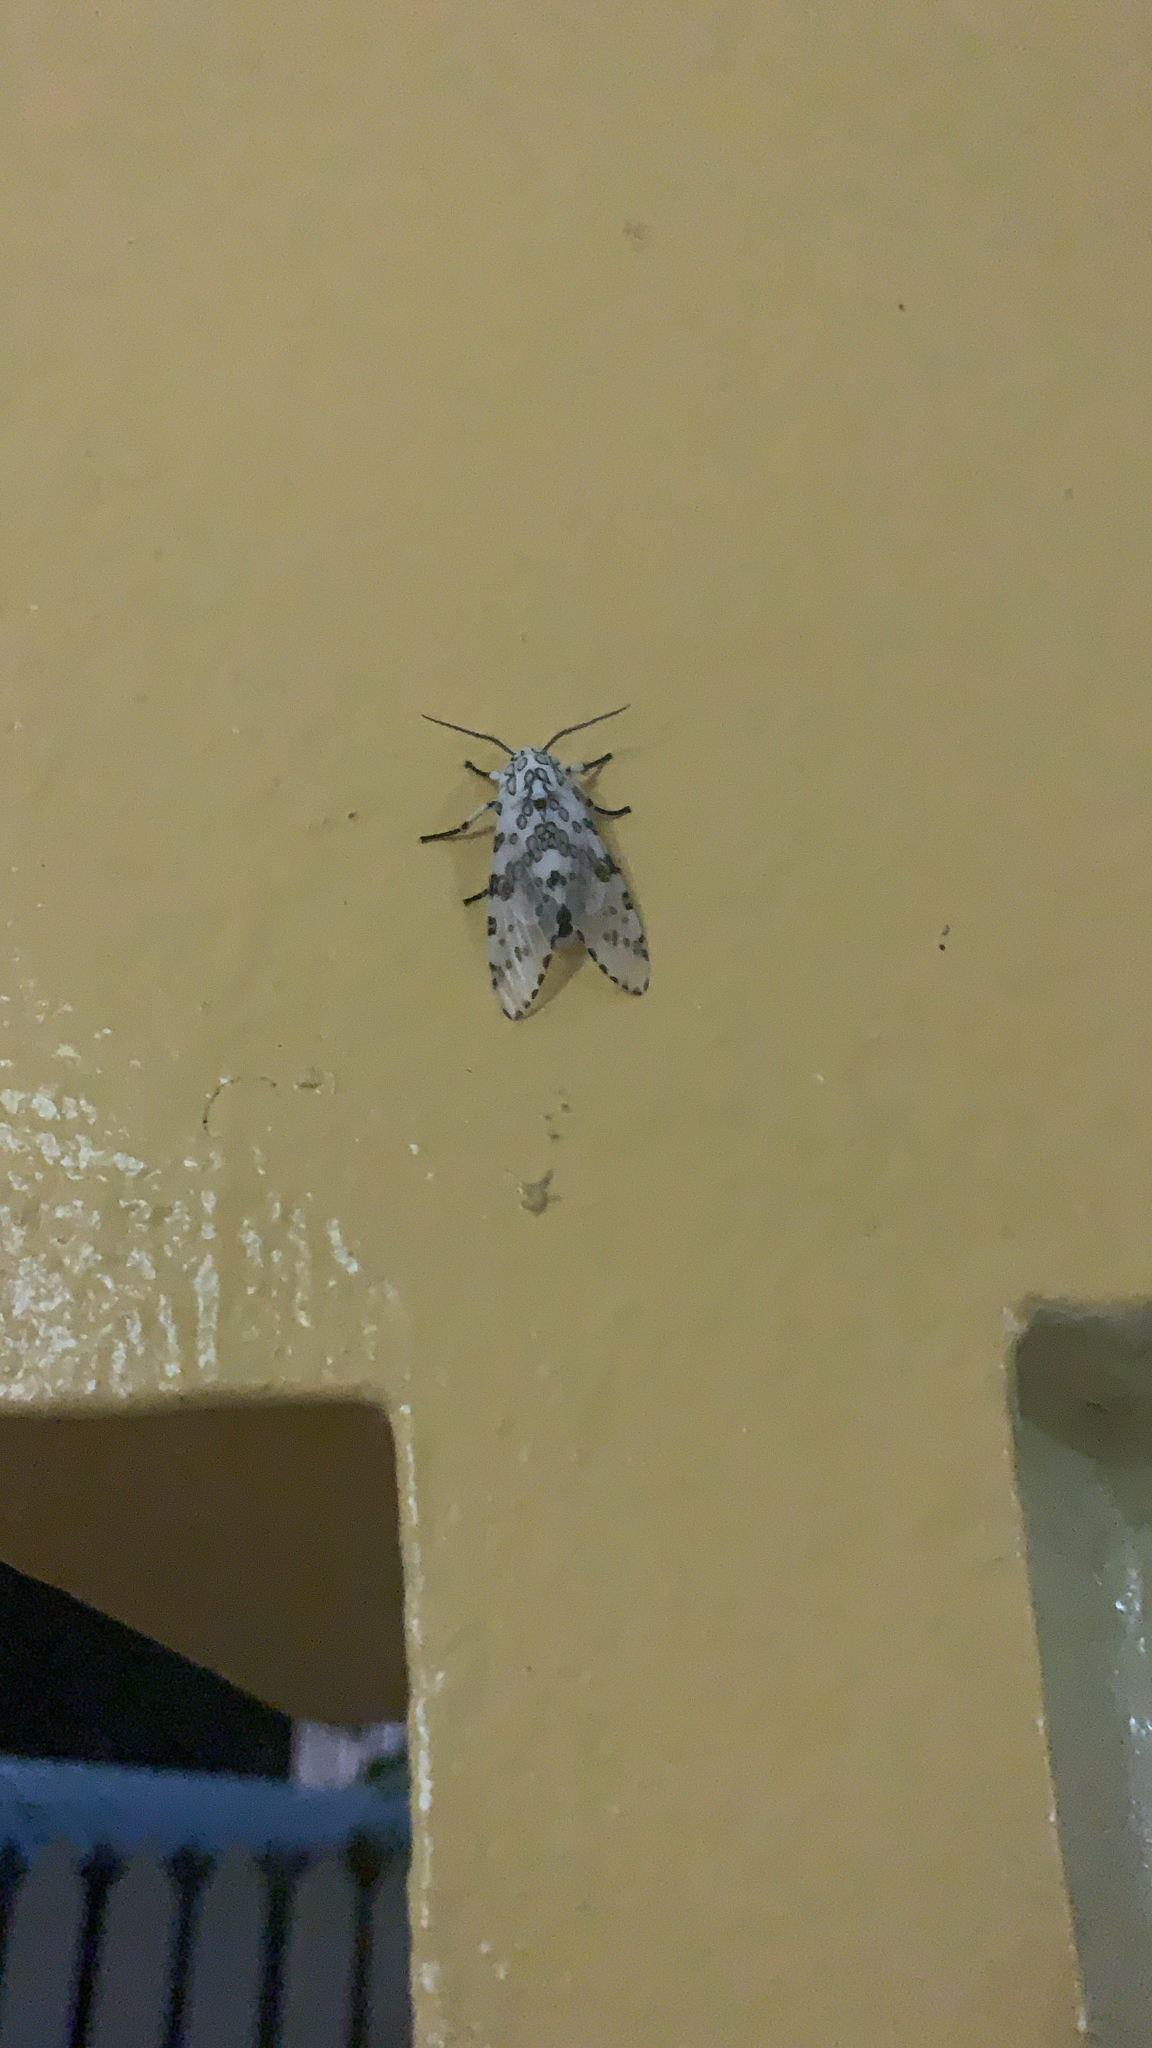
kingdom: Animalia
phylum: Arthropoda
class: Insecta
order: Lepidoptera
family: Erebidae
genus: Hypercompe
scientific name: Hypercompe scribonia
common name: Giant leopard moth
